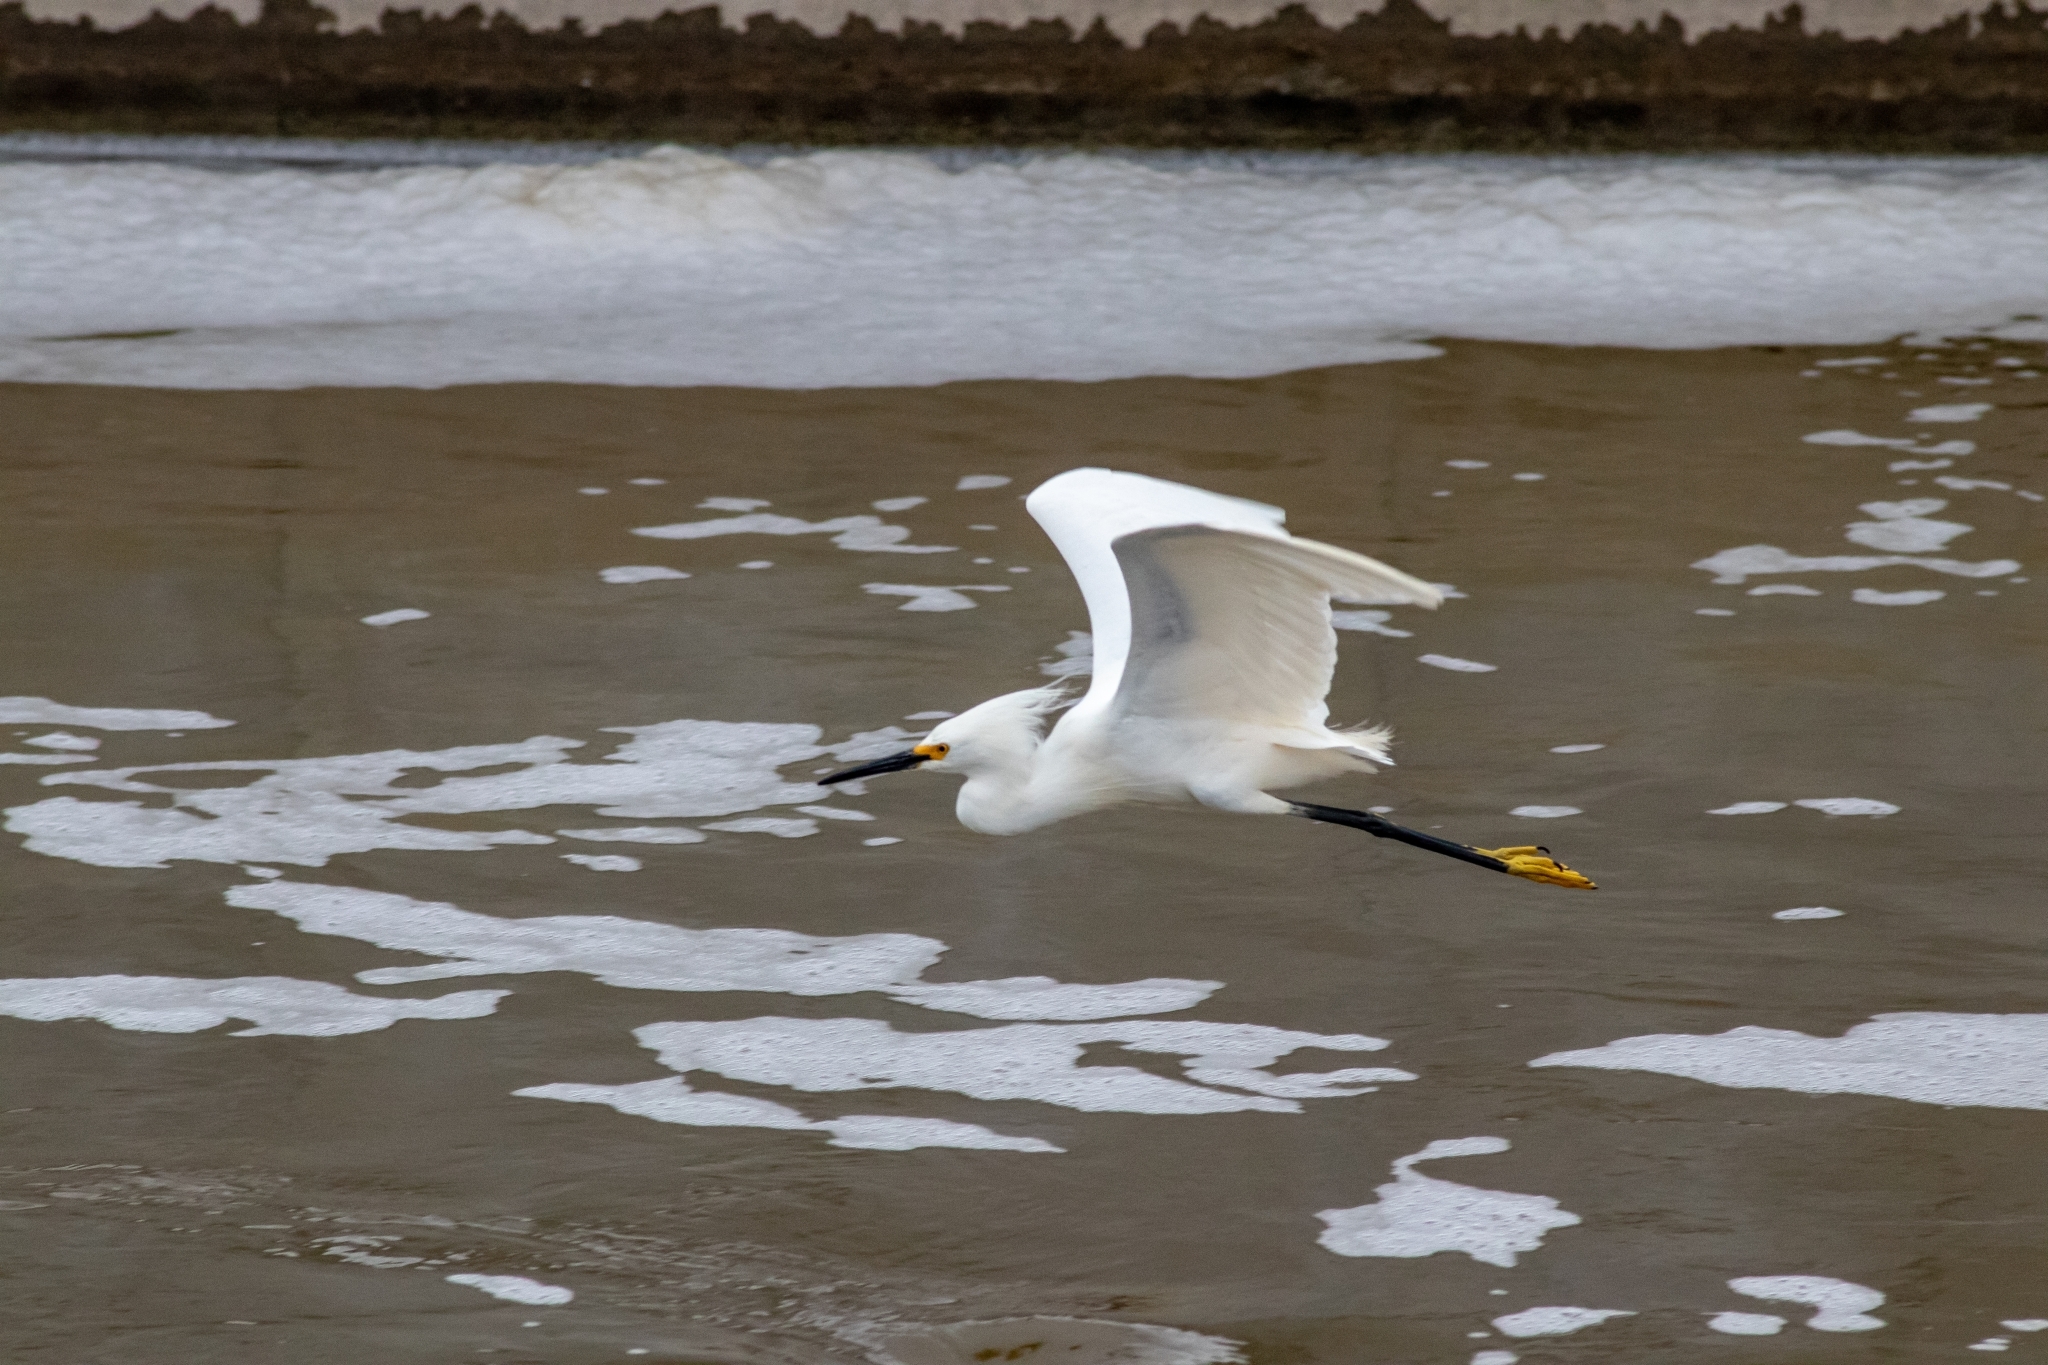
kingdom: Animalia
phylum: Chordata
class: Aves
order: Pelecaniformes
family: Ardeidae
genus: Egretta
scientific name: Egretta thula
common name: Snowy egret
